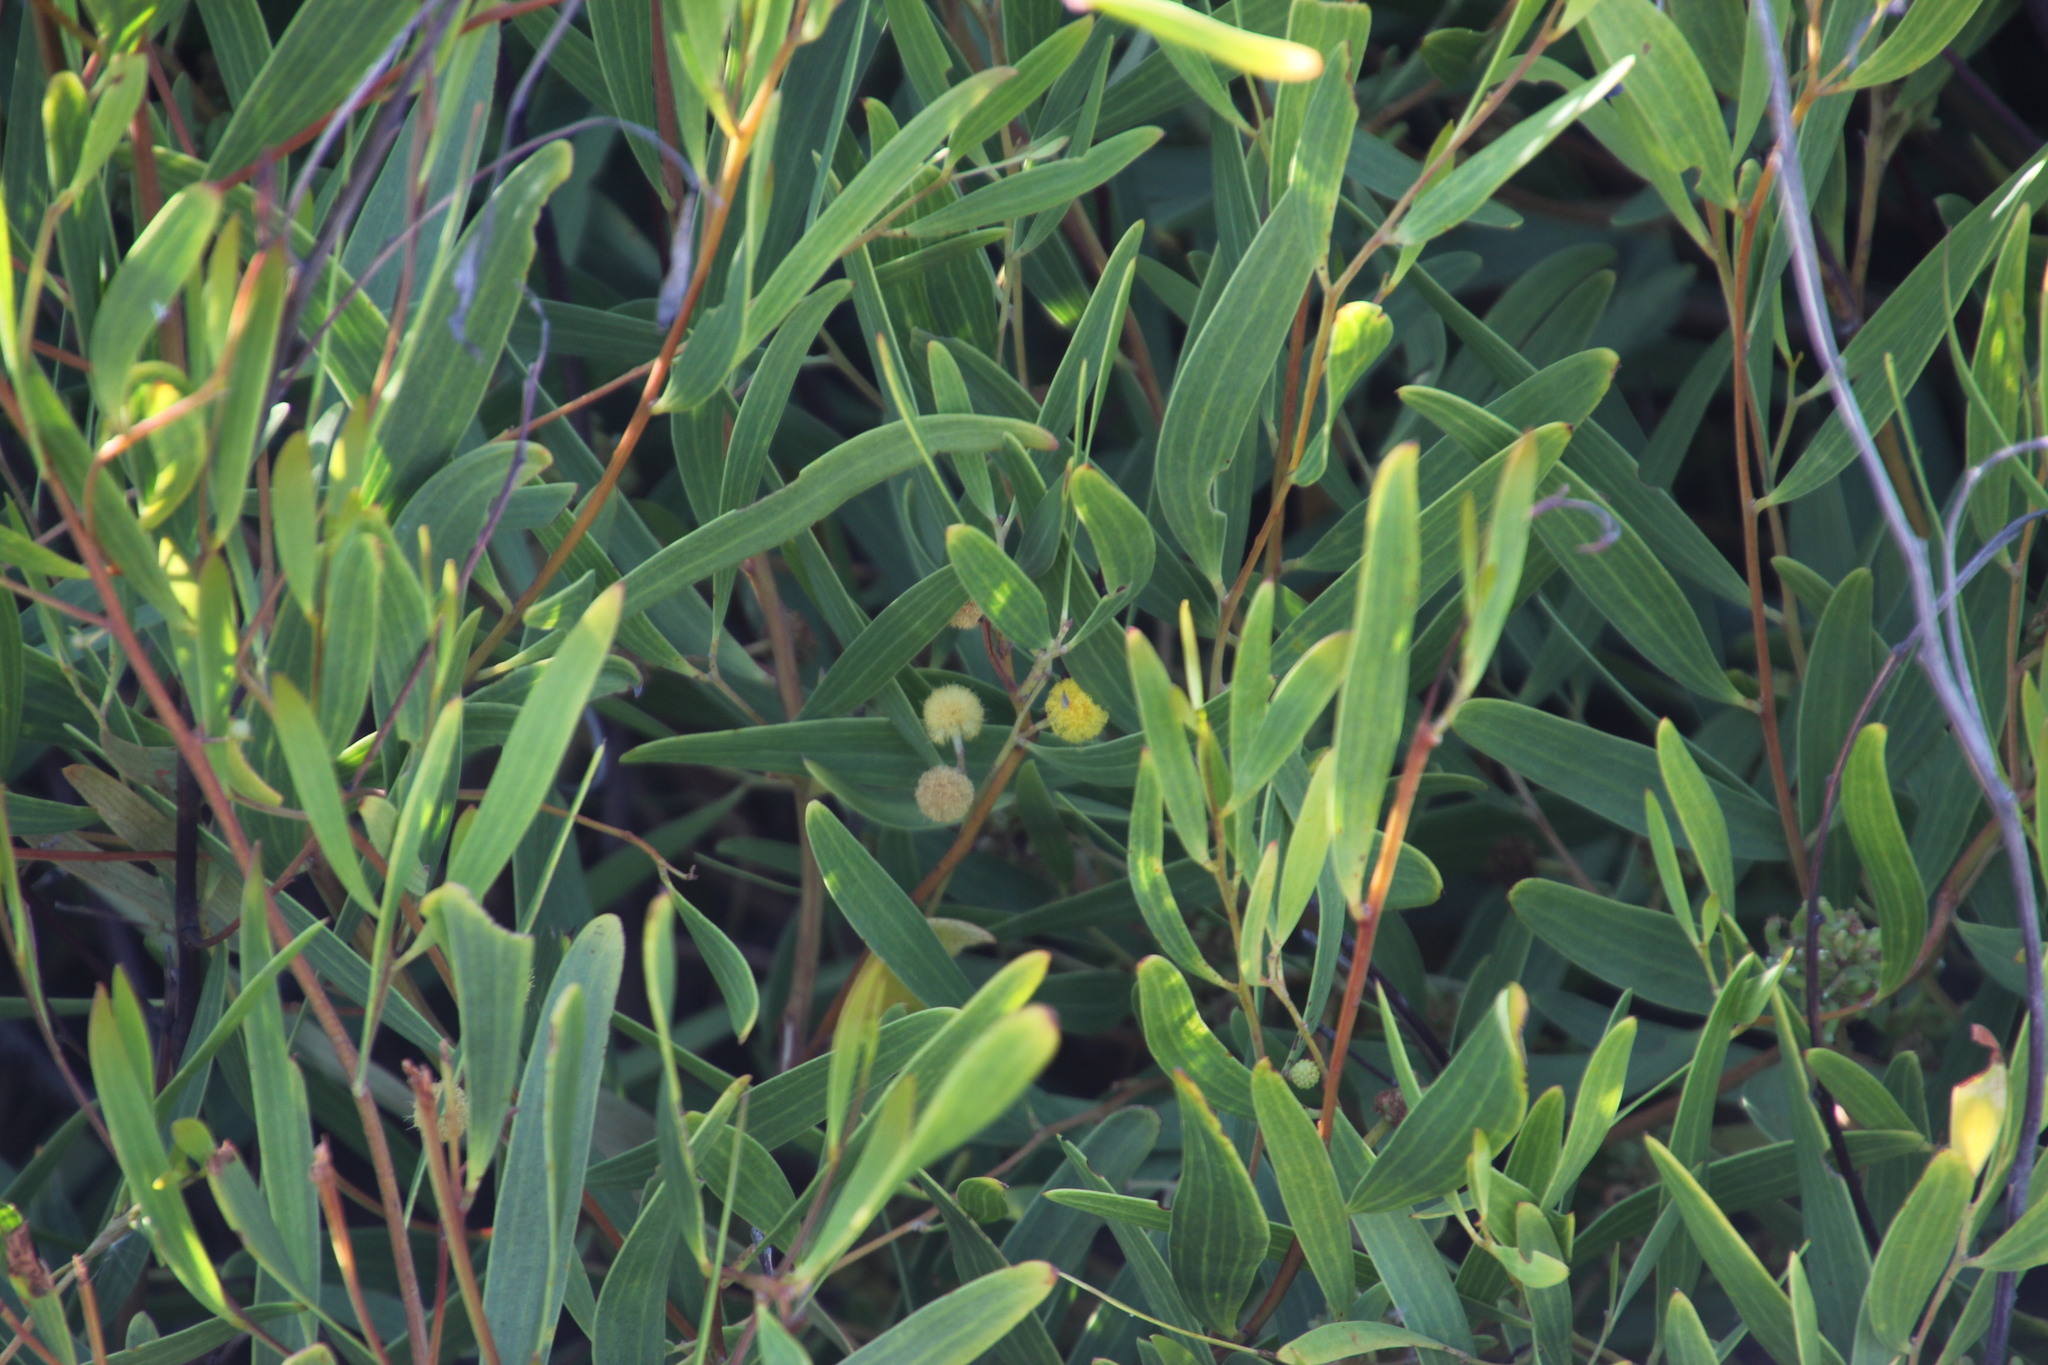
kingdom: Plantae
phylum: Tracheophyta
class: Magnoliopsida
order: Fabales
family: Fabaceae
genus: Acacia
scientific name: Acacia cyclops
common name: Coastal wattle
